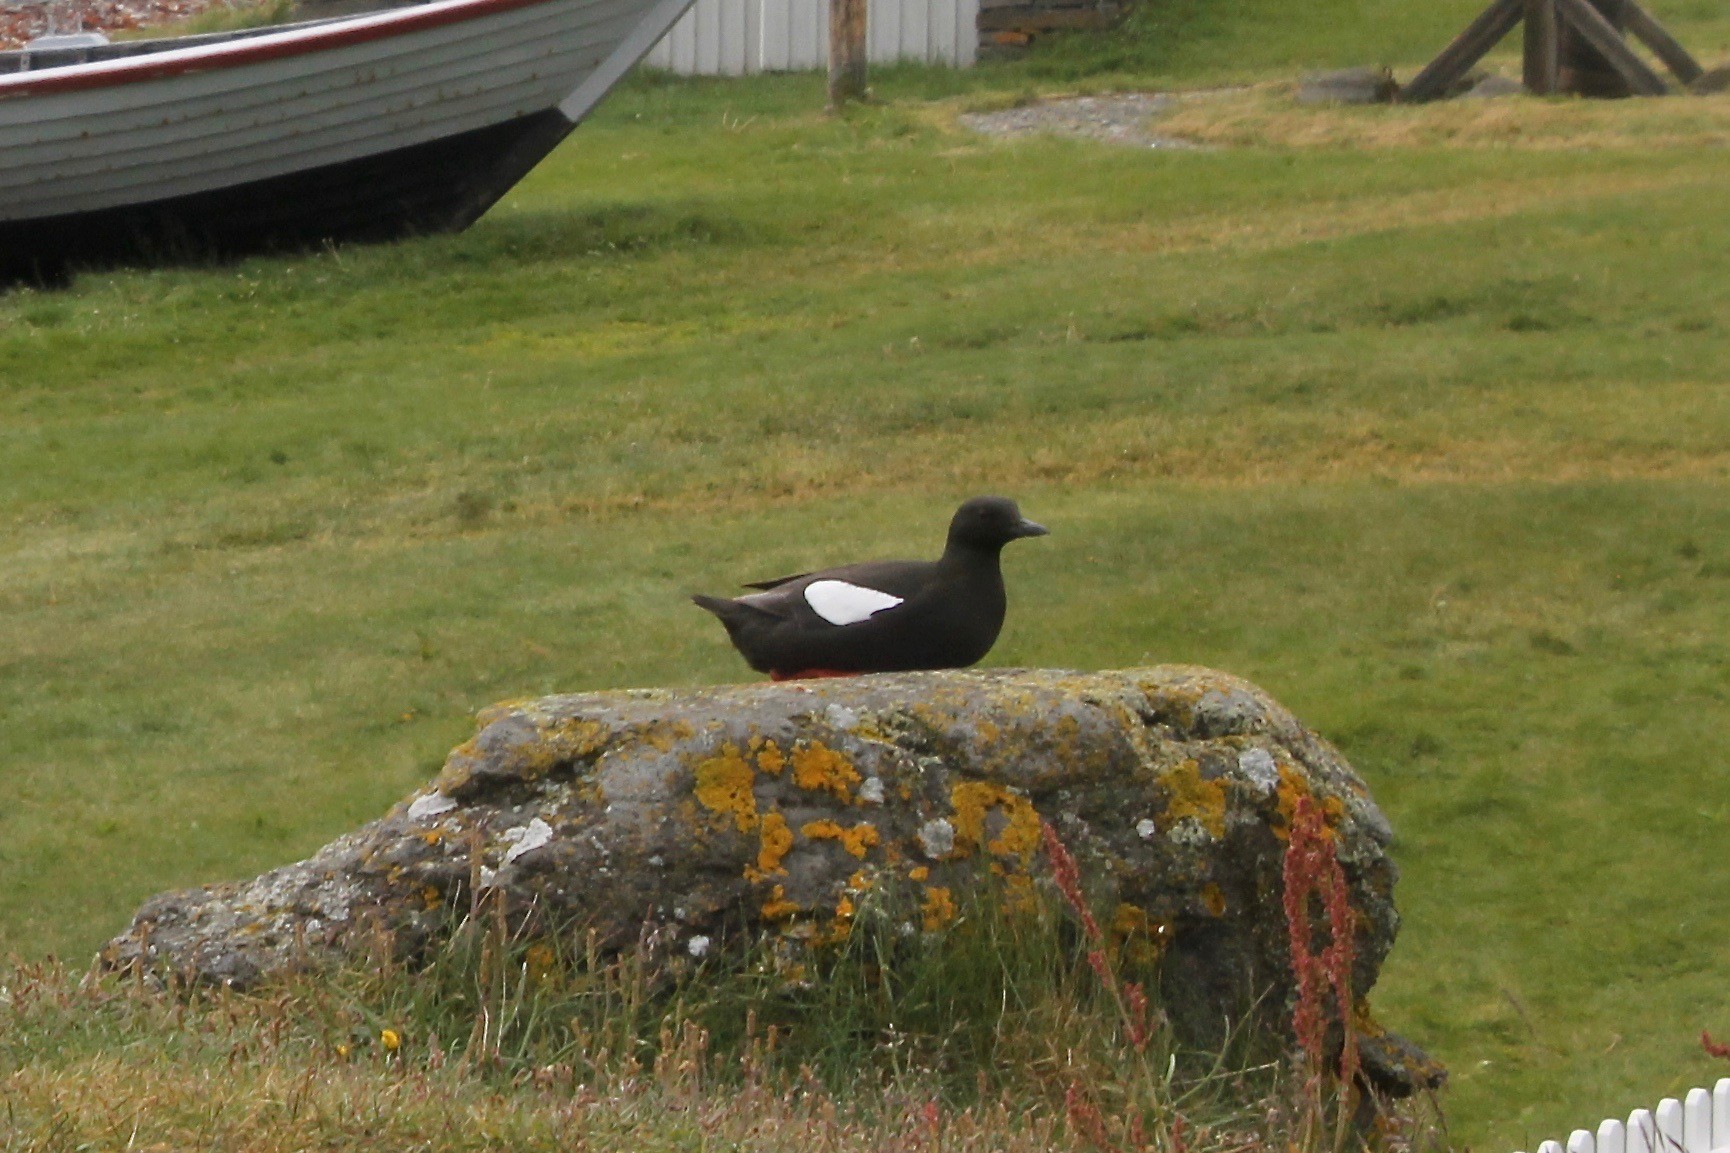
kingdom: Animalia
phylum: Chordata
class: Aves
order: Charadriiformes
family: Alcidae
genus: Cepphus
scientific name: Cepphus grylle
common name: Black guillemot
